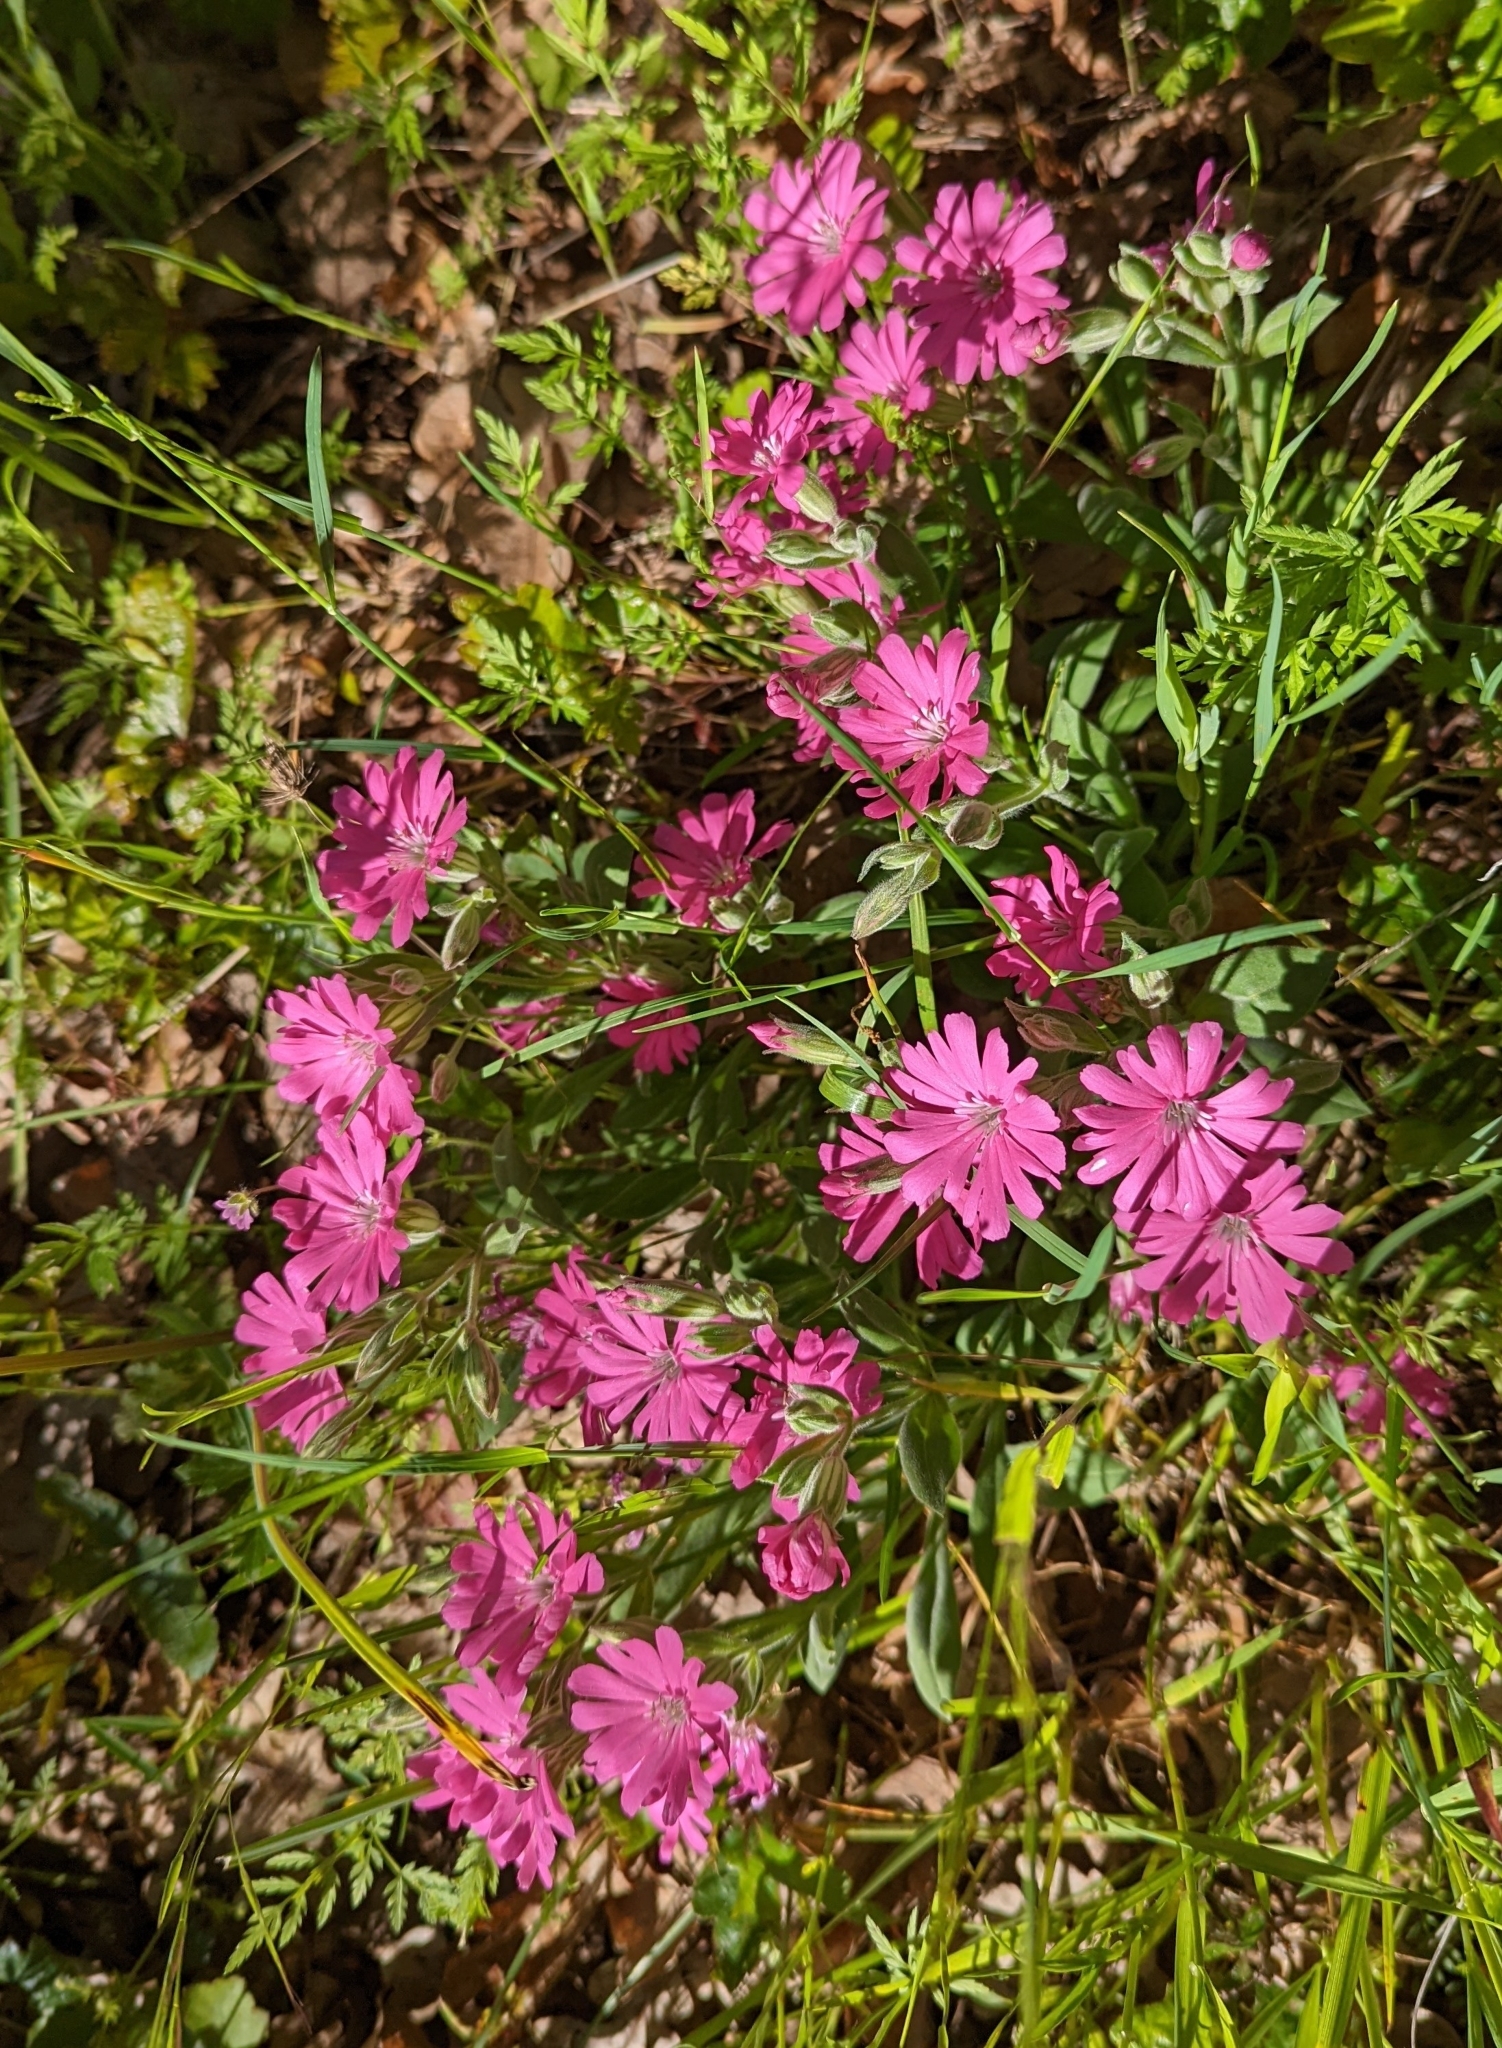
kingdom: Plantae
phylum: Tracheophyta
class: Magnoliopsida
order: Caryophyllales
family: Caryophyllaceae
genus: Silene
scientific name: Silene hookeri
